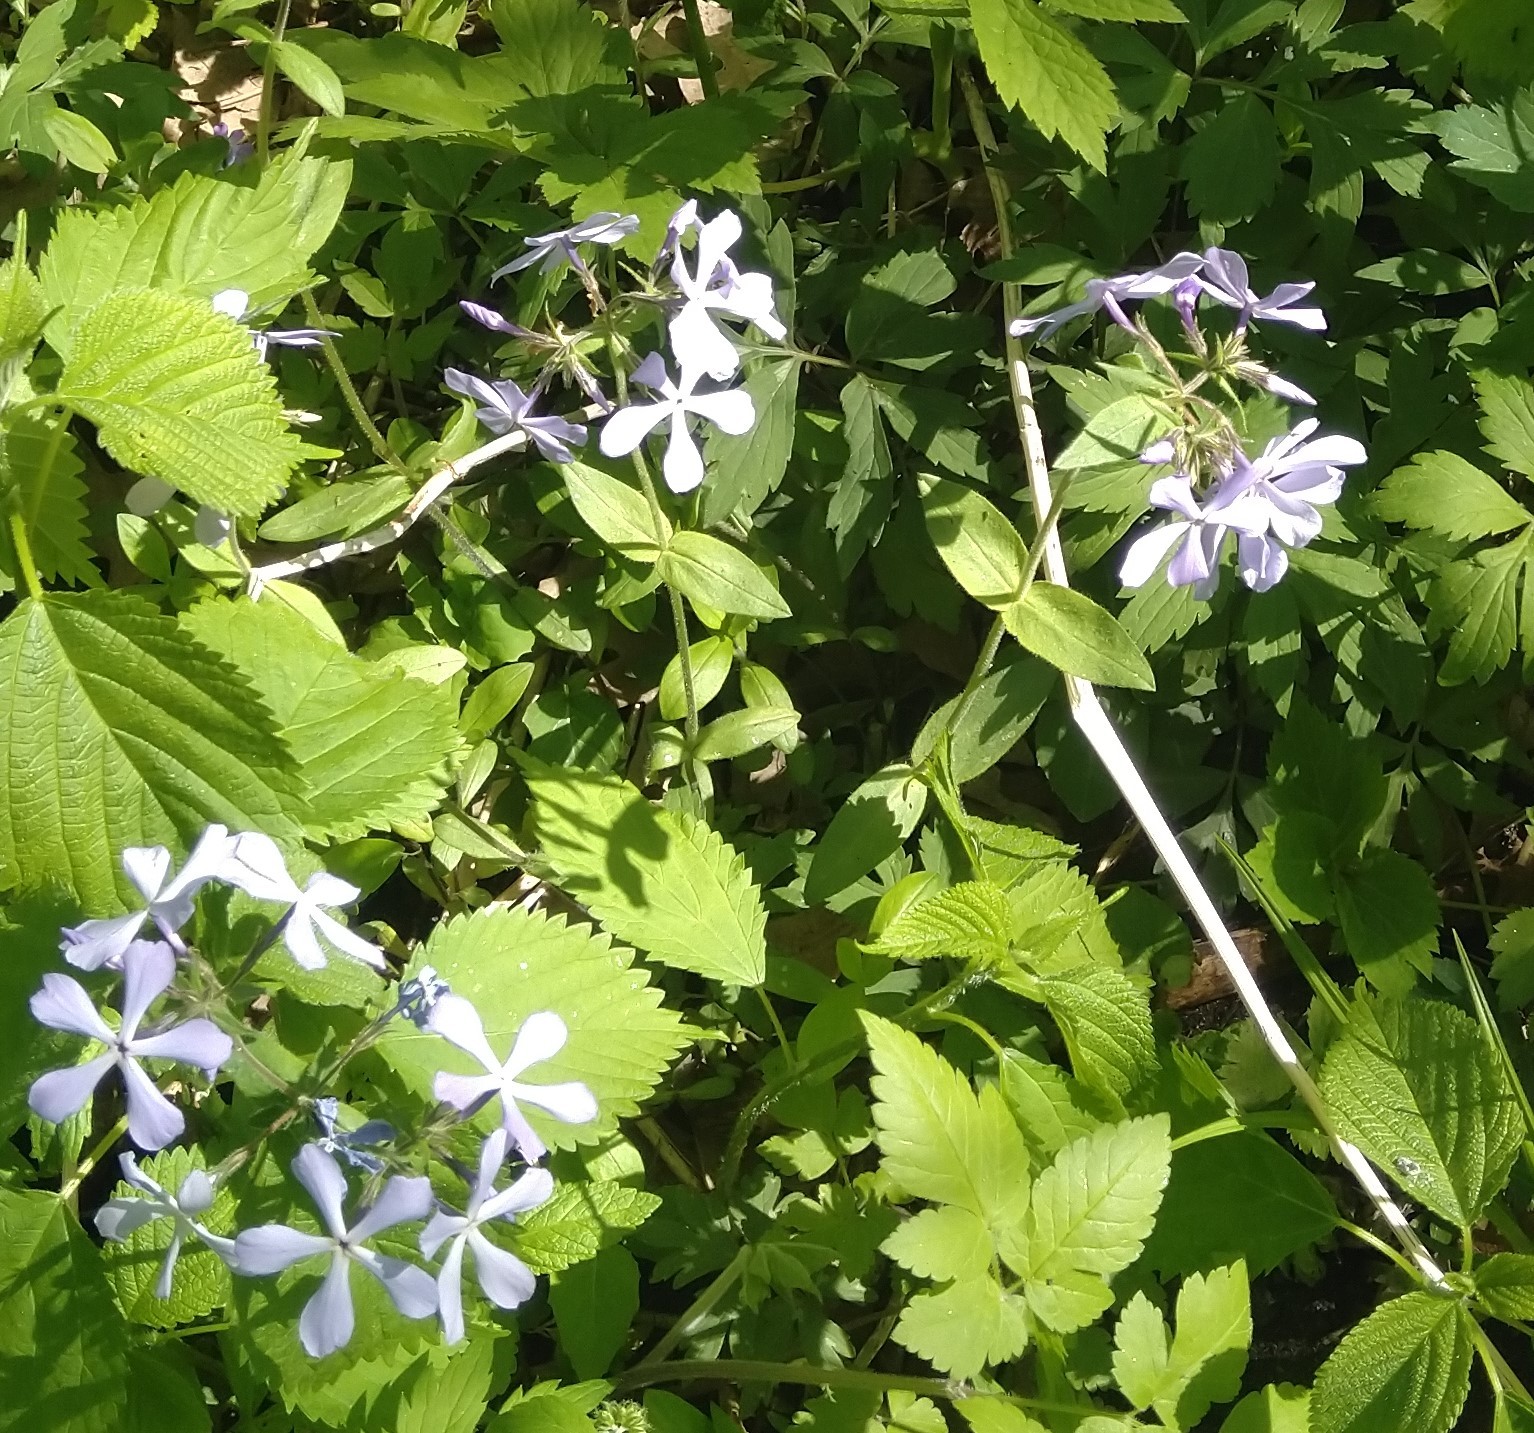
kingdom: Plantae
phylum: Tracheophyta
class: Magnoliopsida
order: Ericales
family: Polemoniaceae
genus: Phlox
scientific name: Phlox divaricata
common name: Blue phlox
